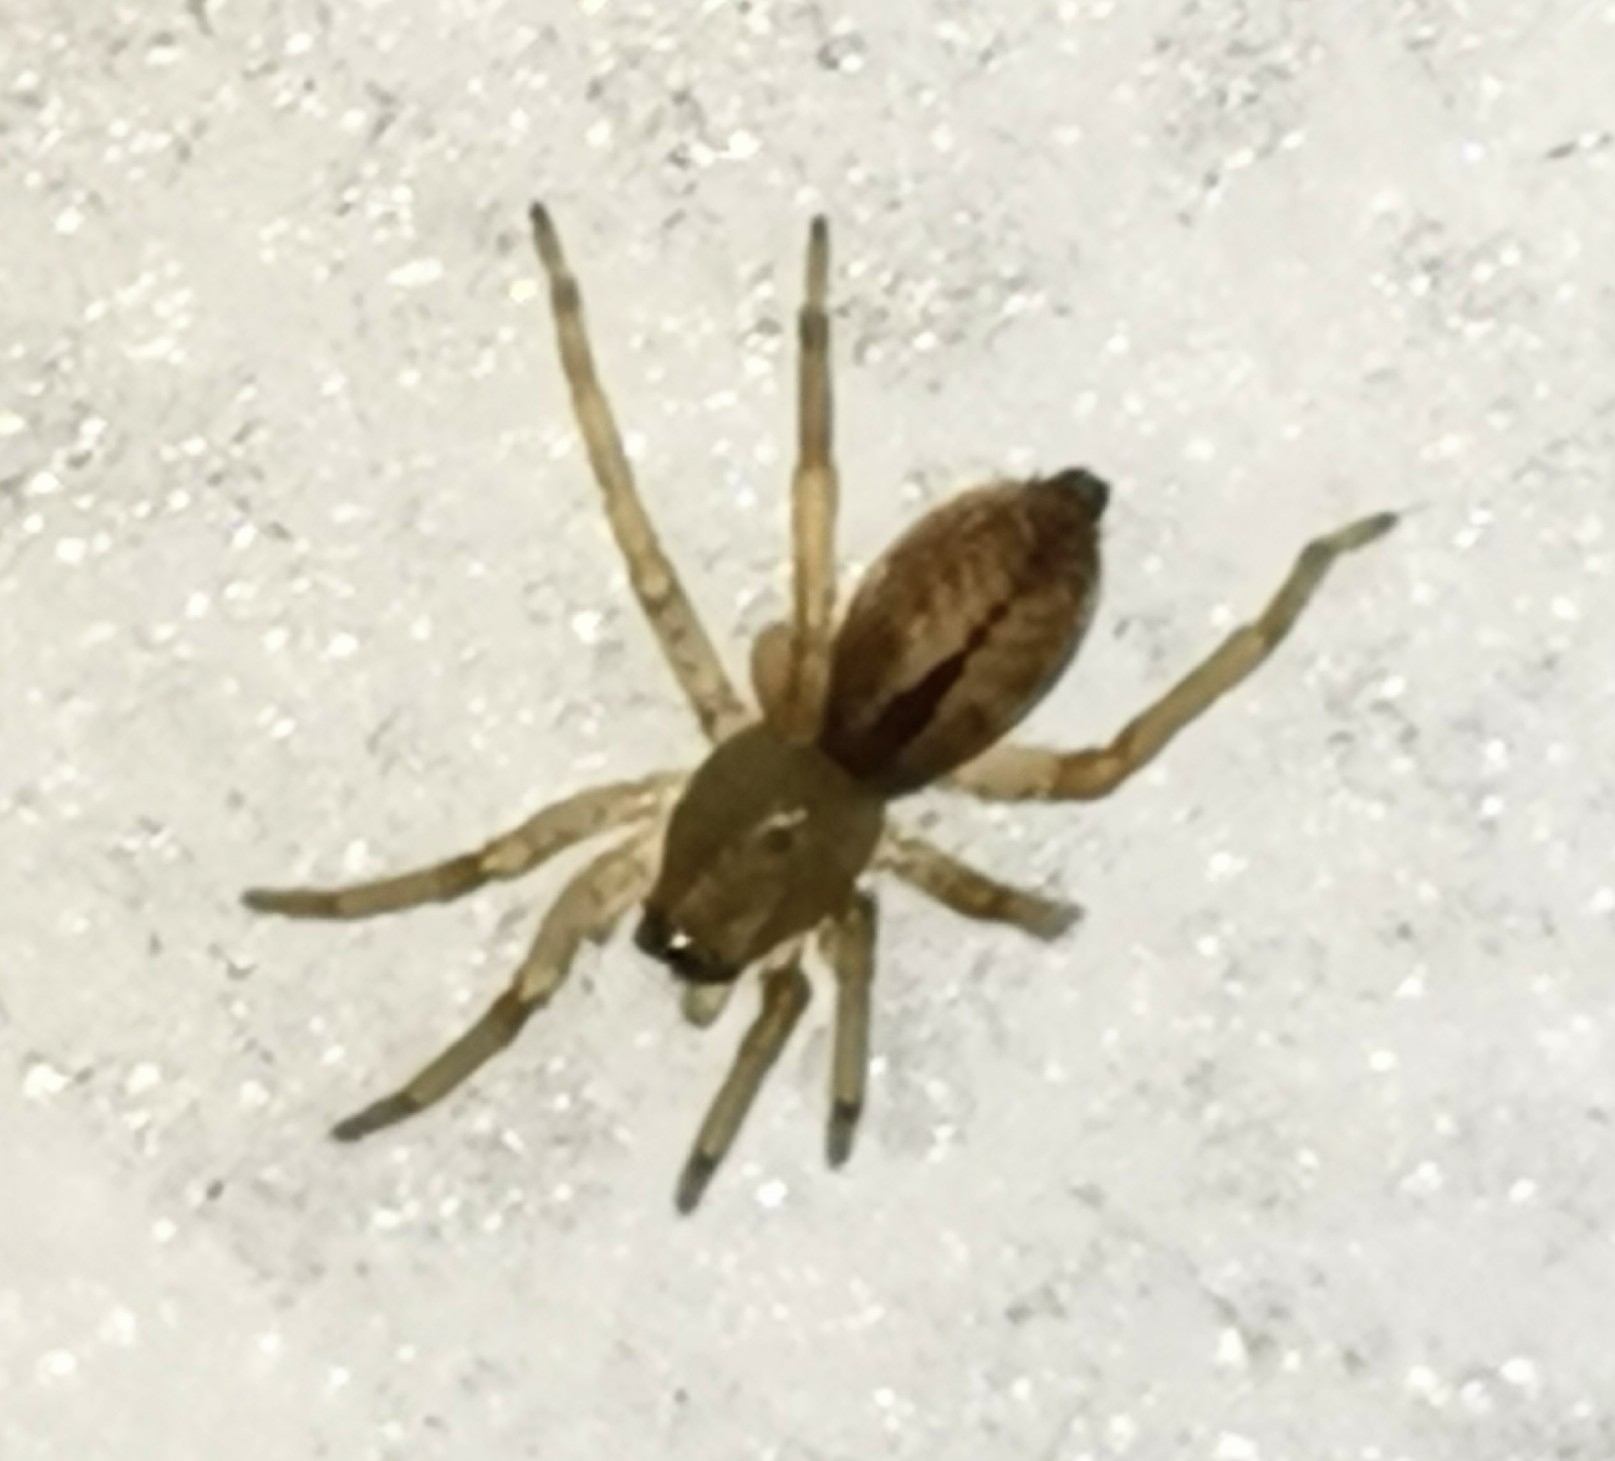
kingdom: Animalia
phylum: Arthropoda
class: Arachnida
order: Araneae
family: Clubionidae
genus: Clubiona
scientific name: Clubiona subsultans
